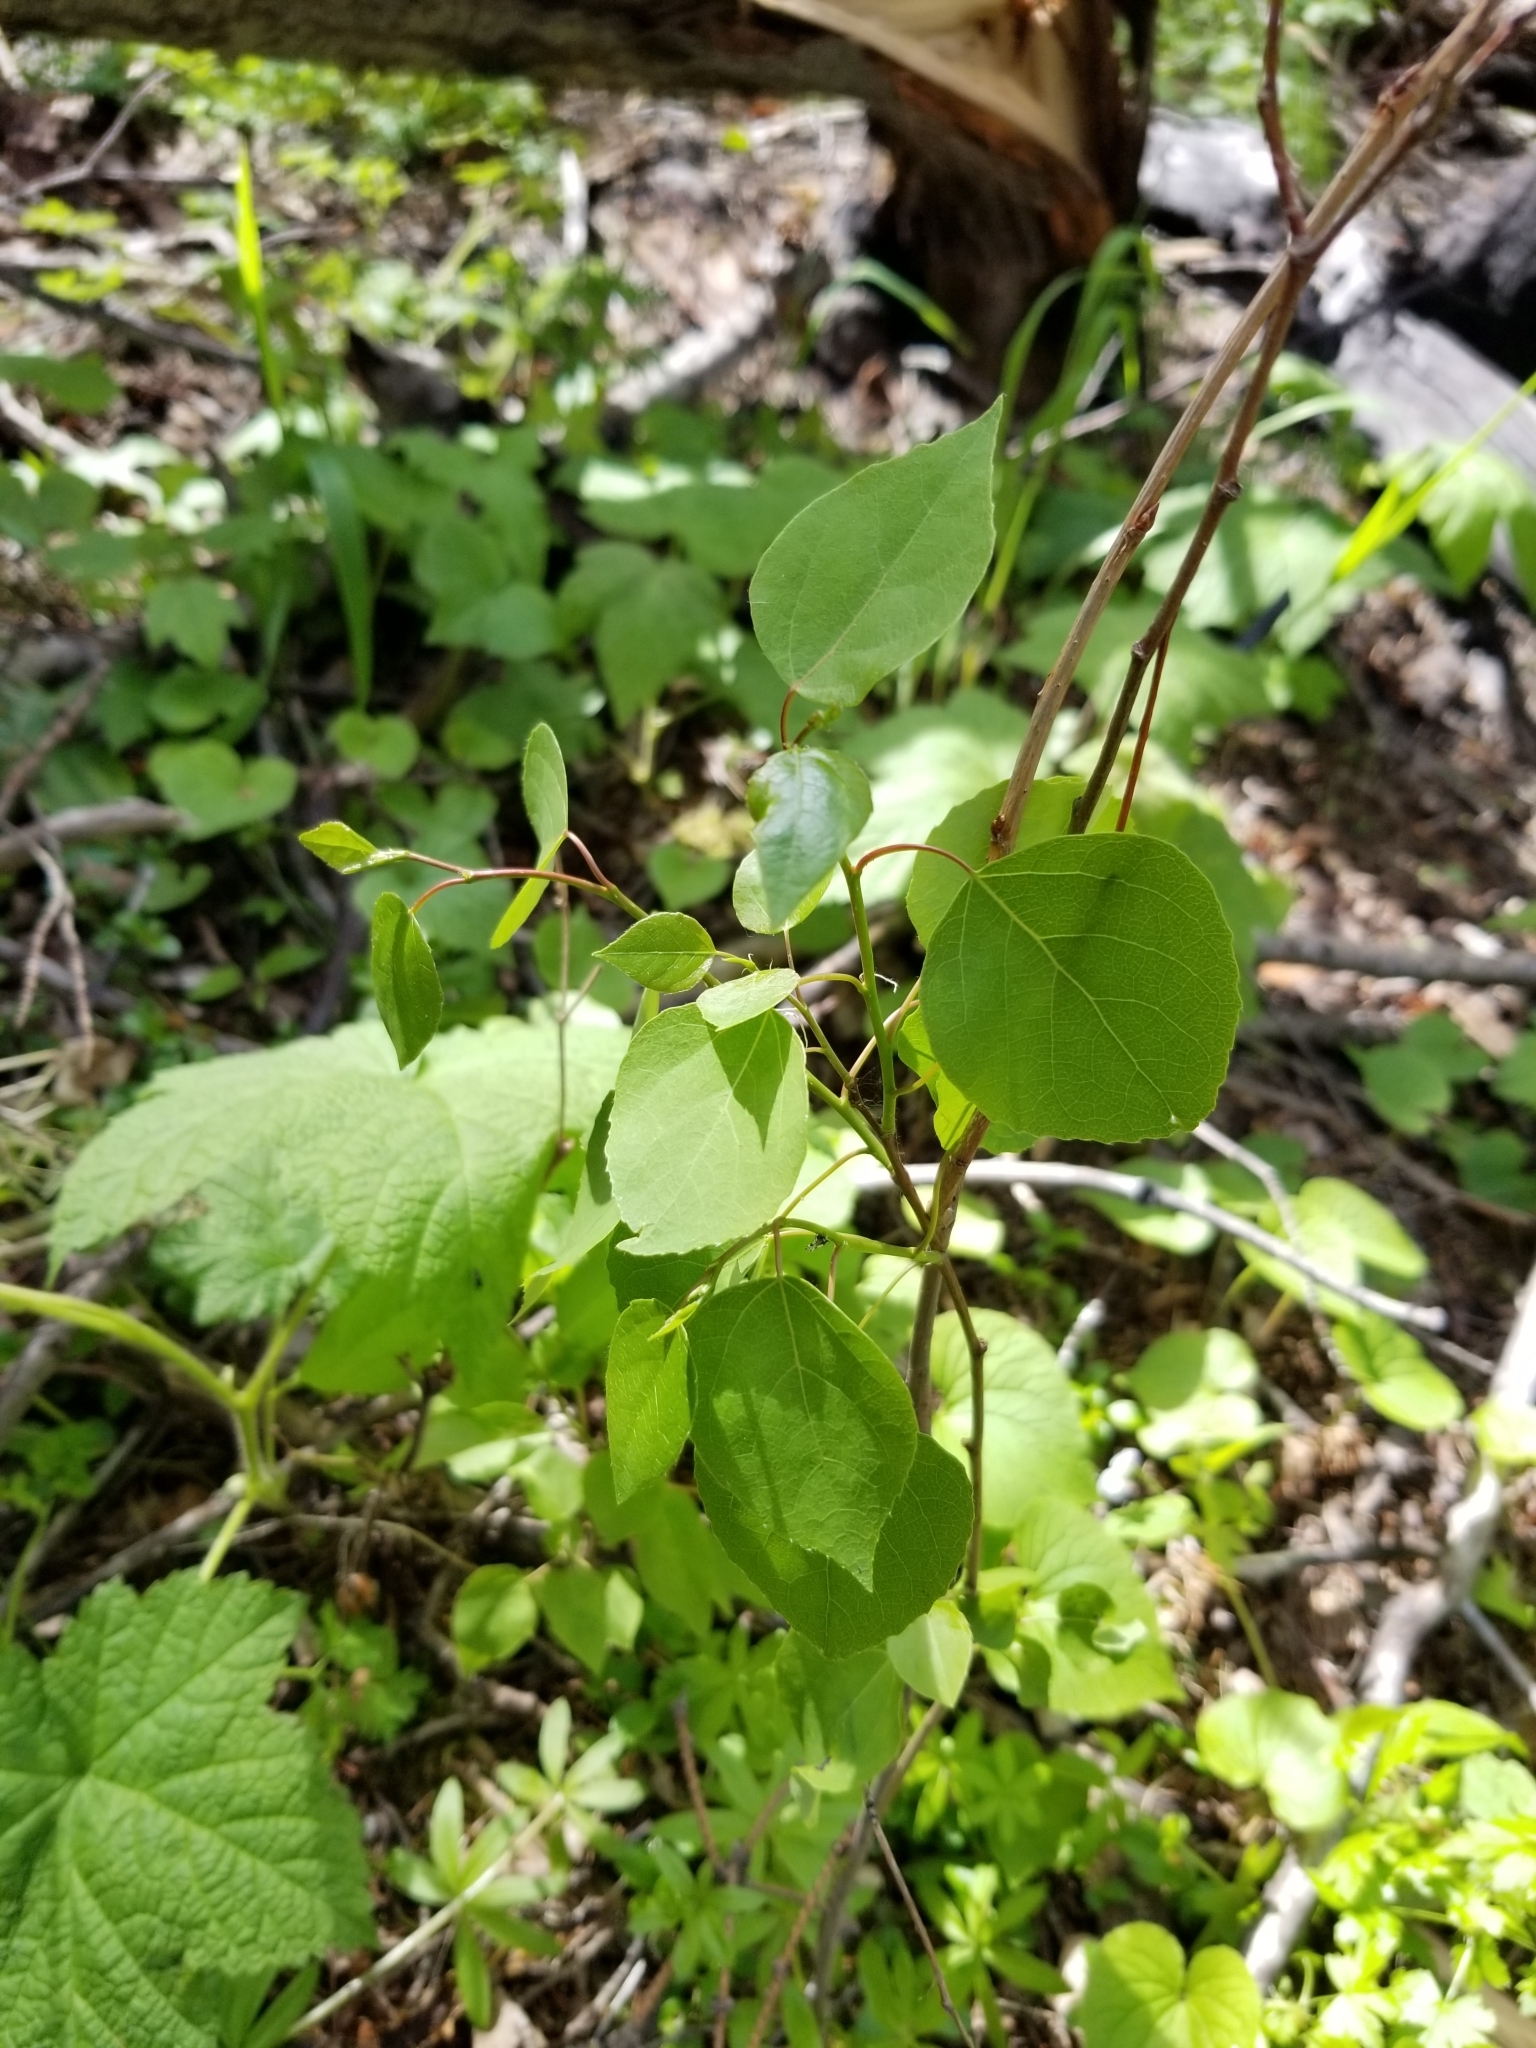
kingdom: Plantae
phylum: Tracheophyta
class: Magnoliopsida
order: Malpighiales
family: Salicaceae
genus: Populus
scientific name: Populus tremuloides
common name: Quaking aspen
